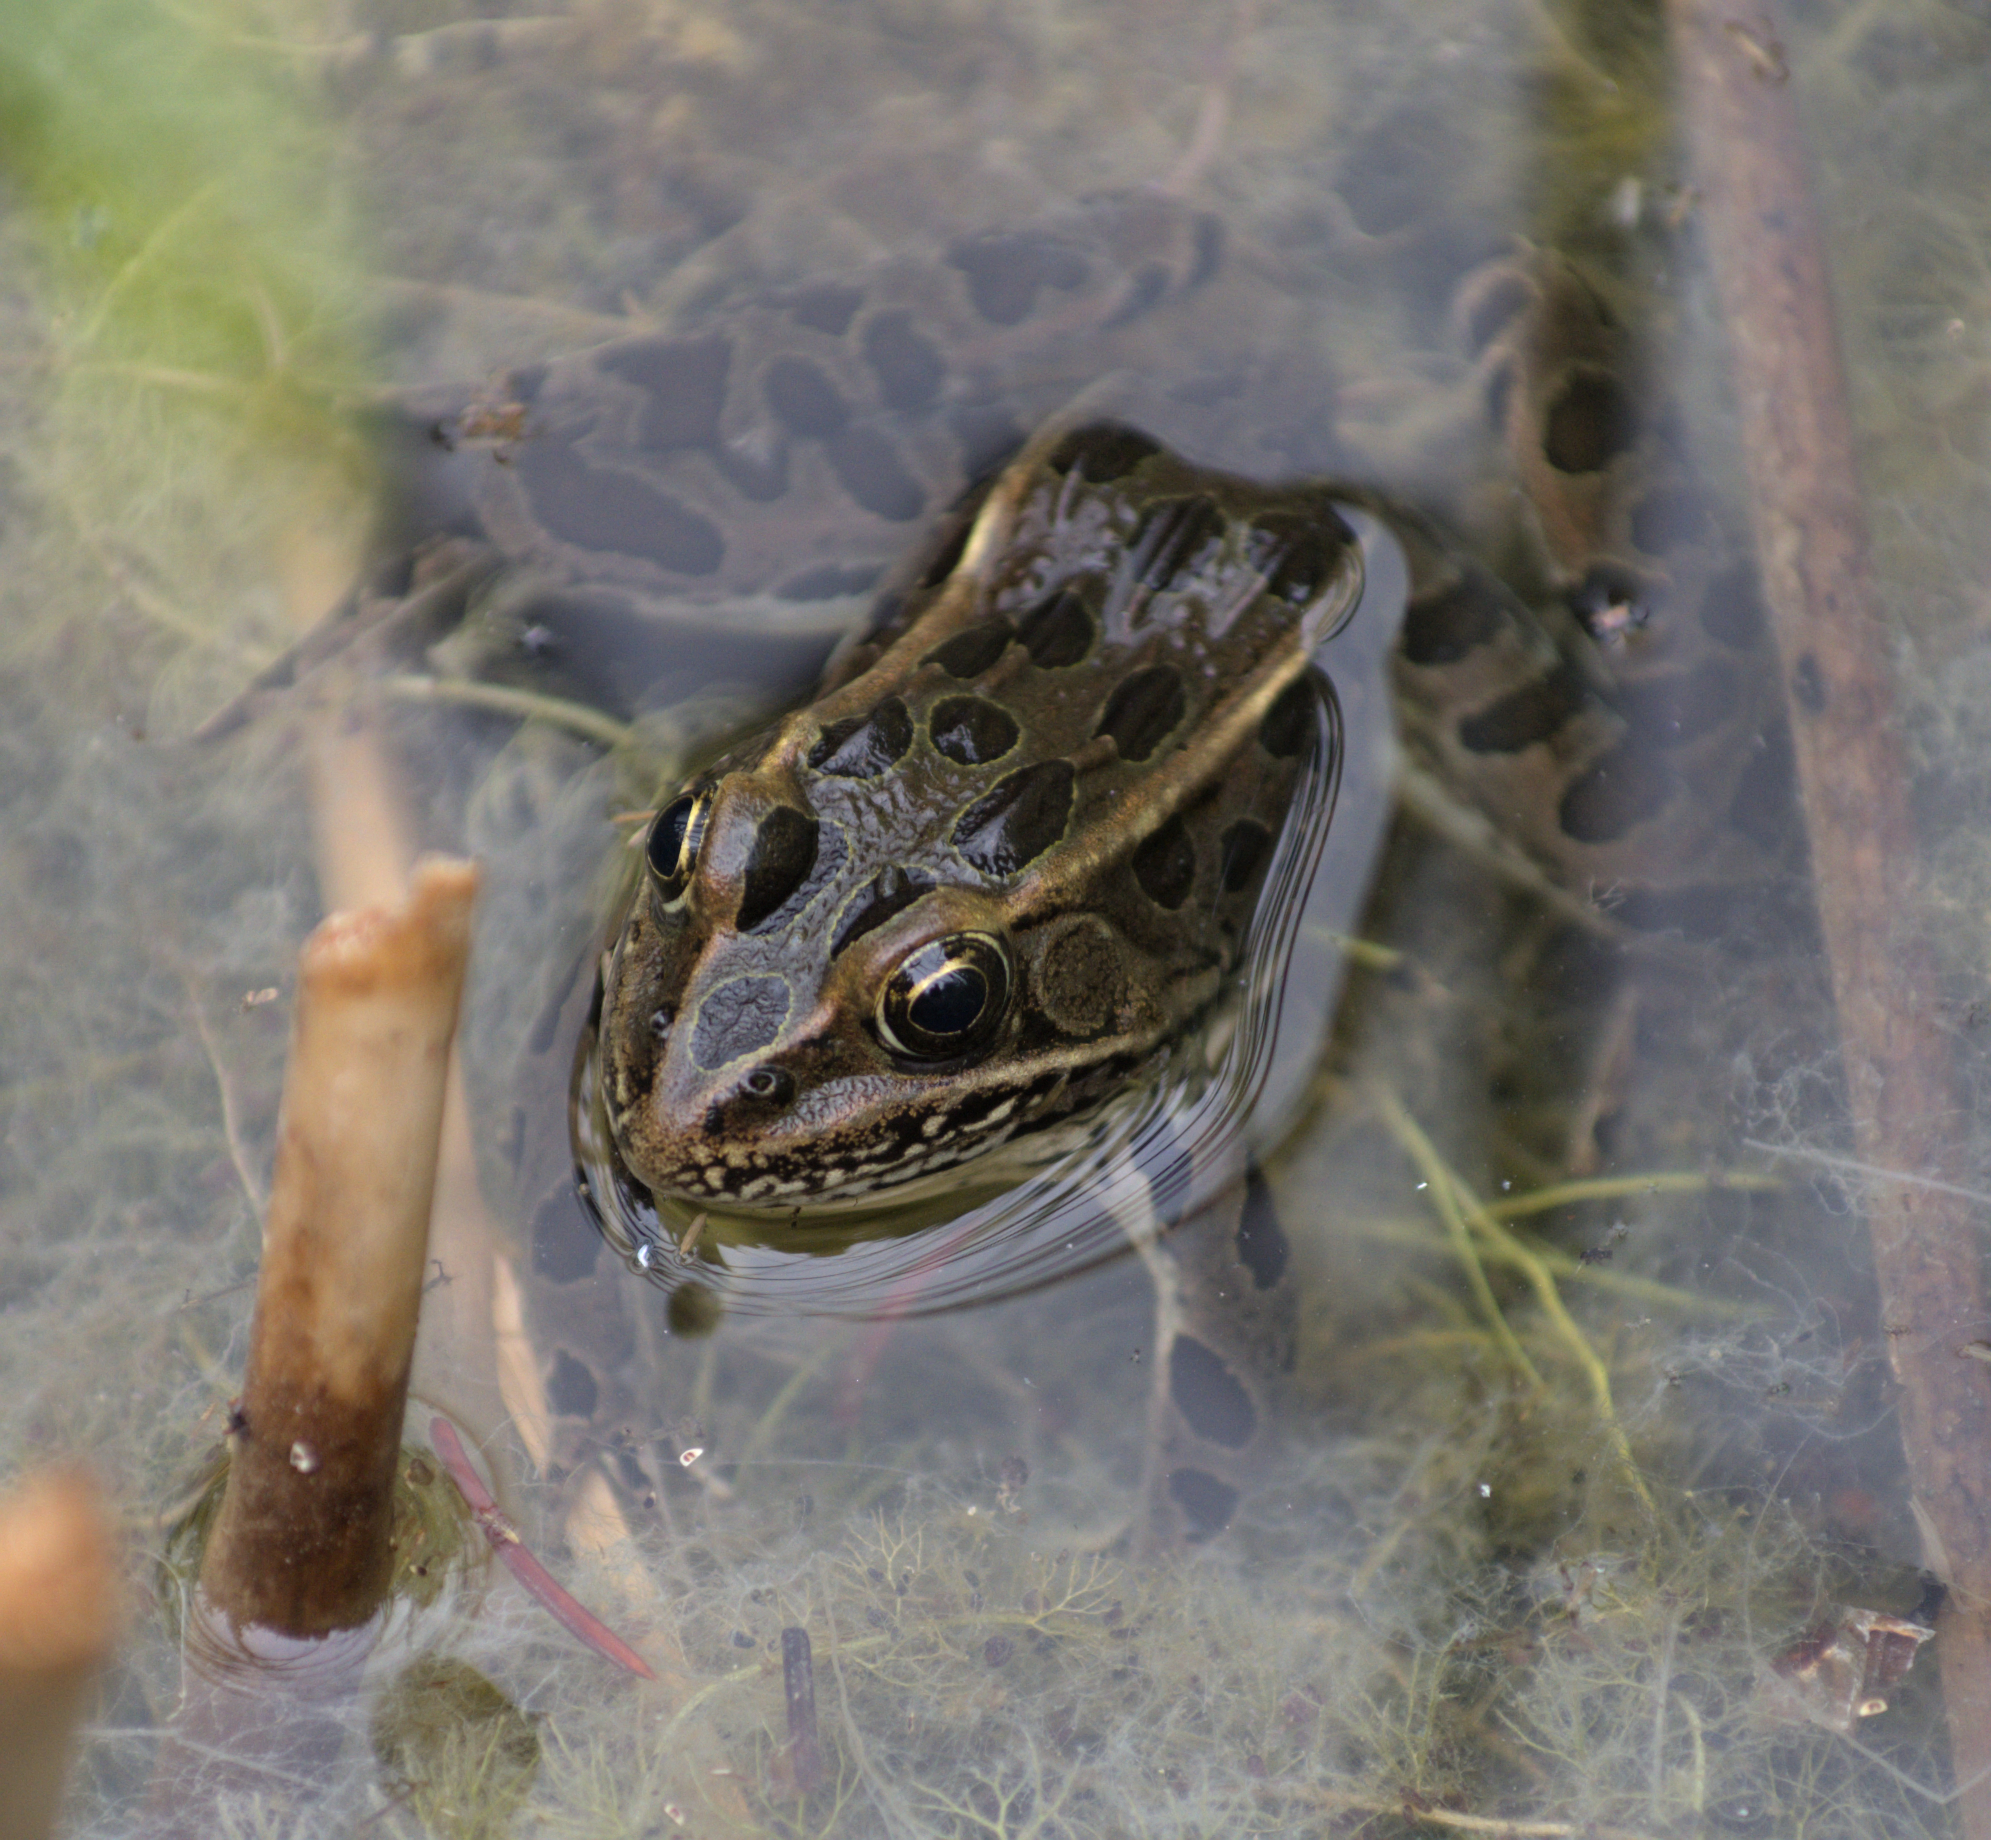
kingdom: Animalia
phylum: Chordata
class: Amphibia
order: Anura
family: Ranidae
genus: Lithobates
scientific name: Lithobates pipiens
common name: Northern leopard frog
